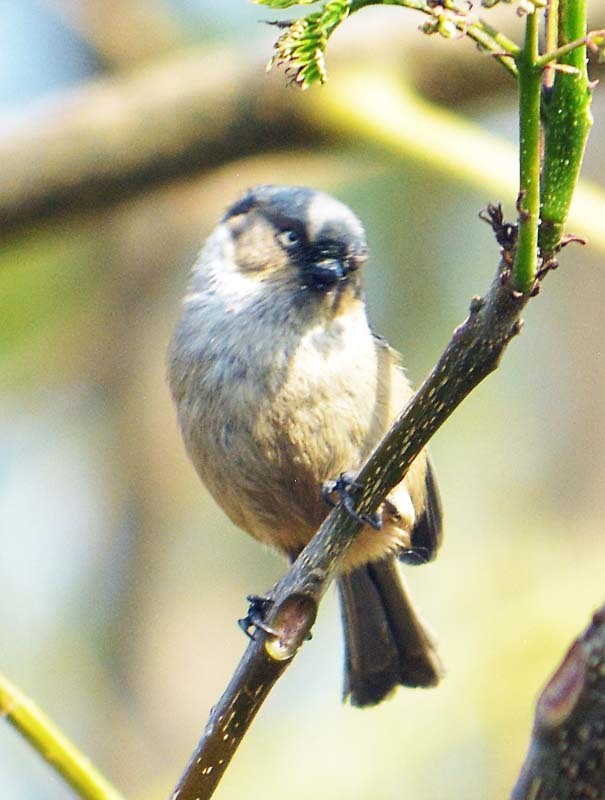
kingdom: Animalia
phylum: Chordata
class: Aves
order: Passeriformes
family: Aegithalidae
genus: Psaltriparus
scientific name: Psaltriparus minimus
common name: American bushtit
